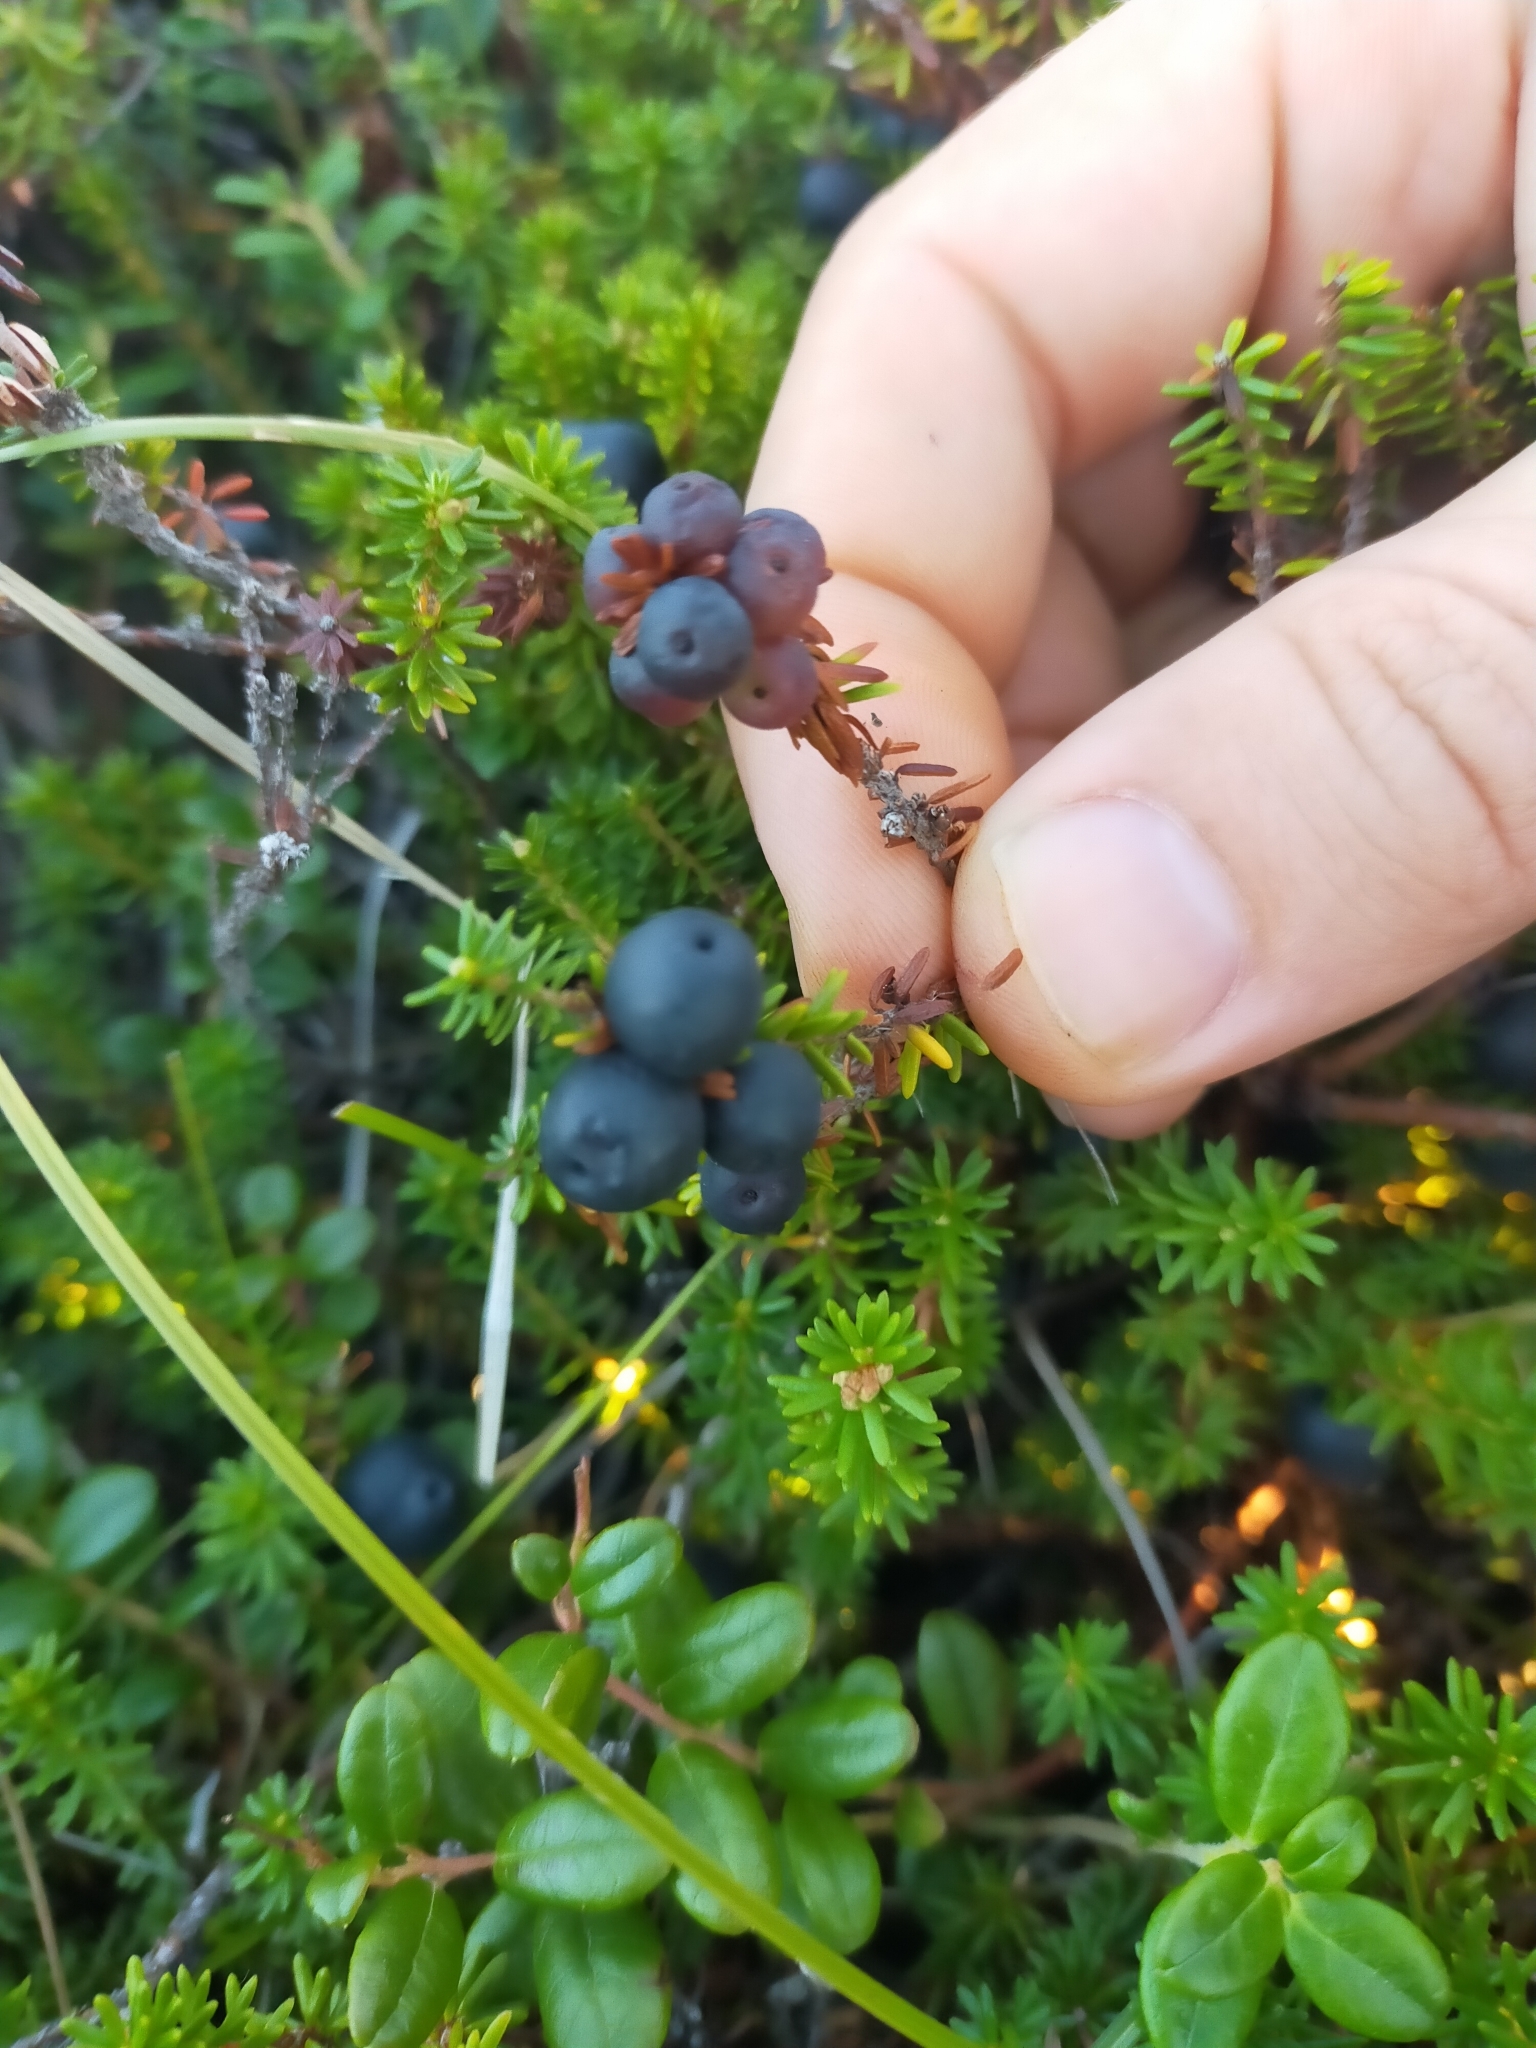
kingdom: Plantae
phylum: Tracheophyta
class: Magnoliopsida
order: Ericales
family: Ericaceae
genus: Empetrum
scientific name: Empetrum nigrum
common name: Black crowberry
